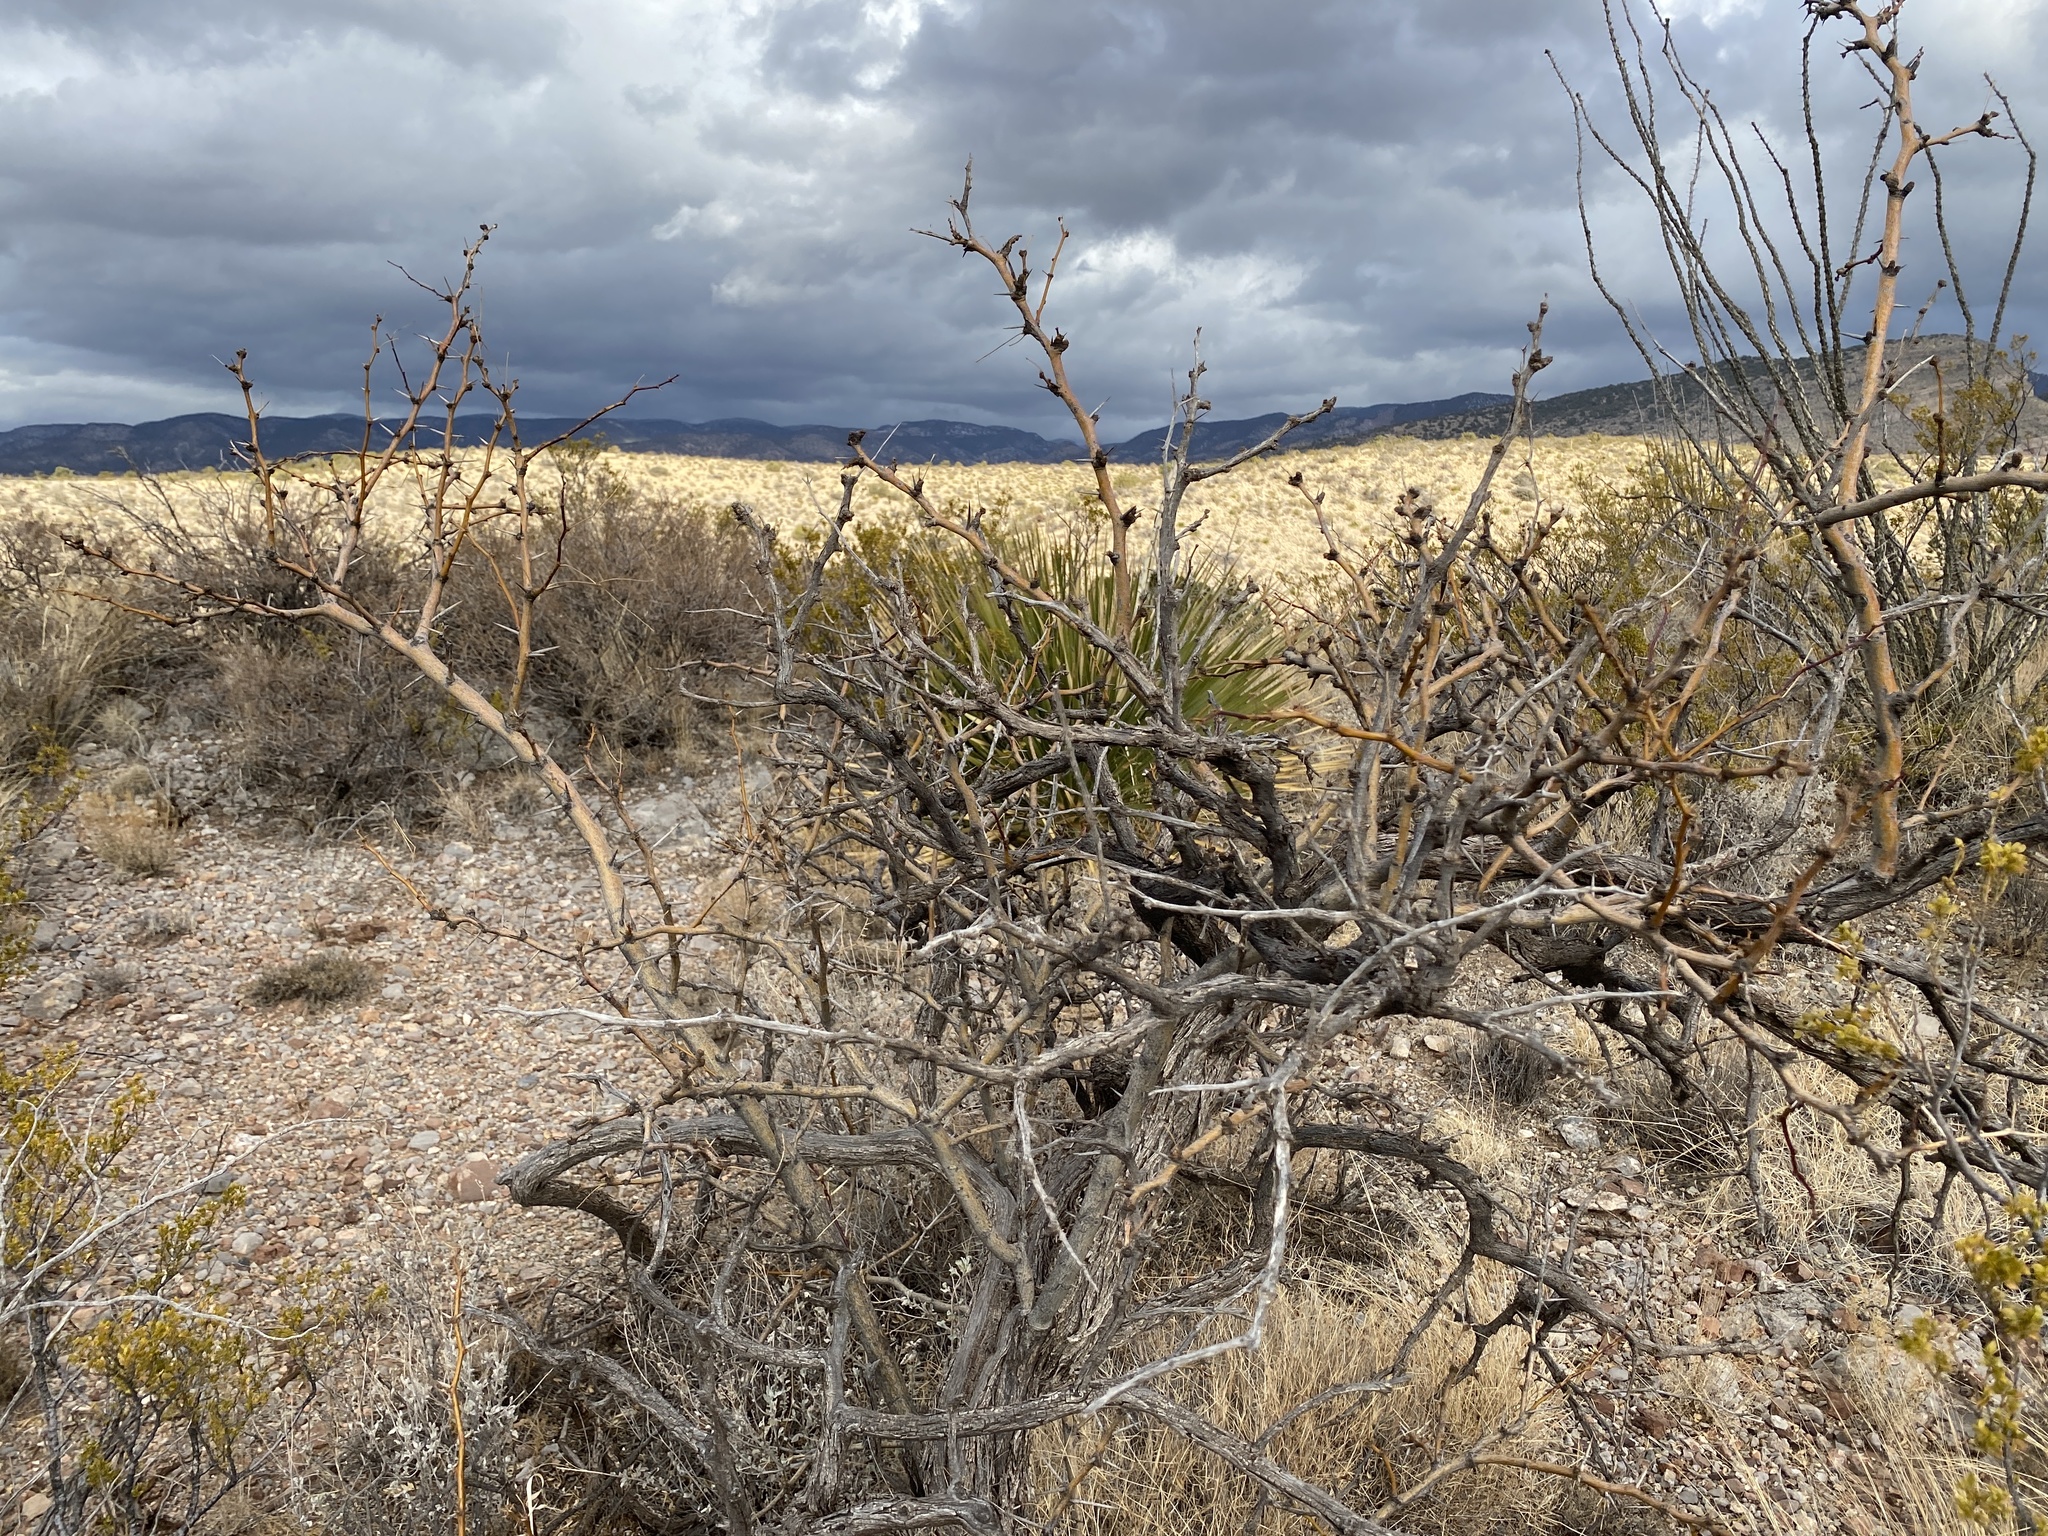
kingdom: Plantae
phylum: Tracheophyta
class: Magnoliopsida
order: Fabales
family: Fabaceae
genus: Prosopis
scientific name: Prosopis glandulosa
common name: Honey mesquite
